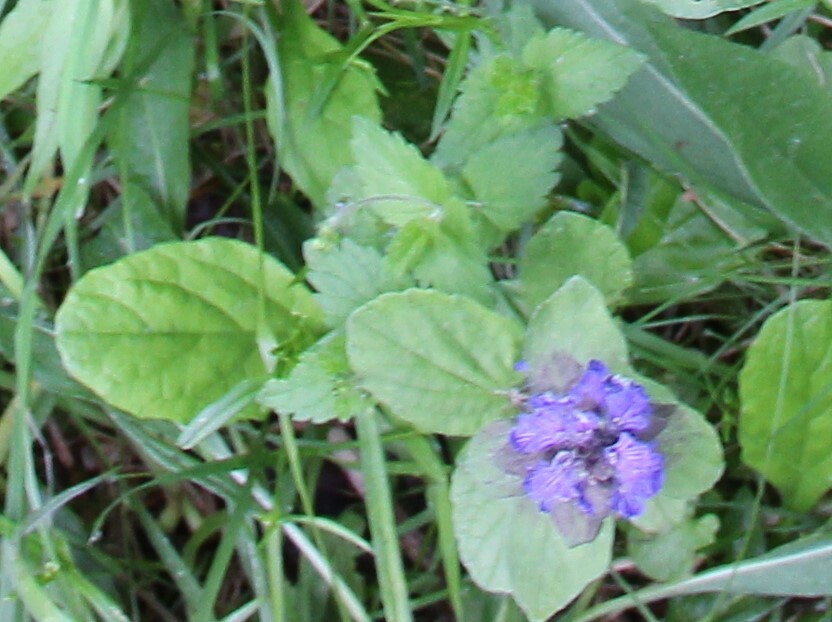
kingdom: Plantae
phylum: Tracheophyta
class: Magnoliopsida
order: Lamiales
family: Lamiaceae
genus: Ajuga
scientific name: Ajuga reptans
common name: Bugle
